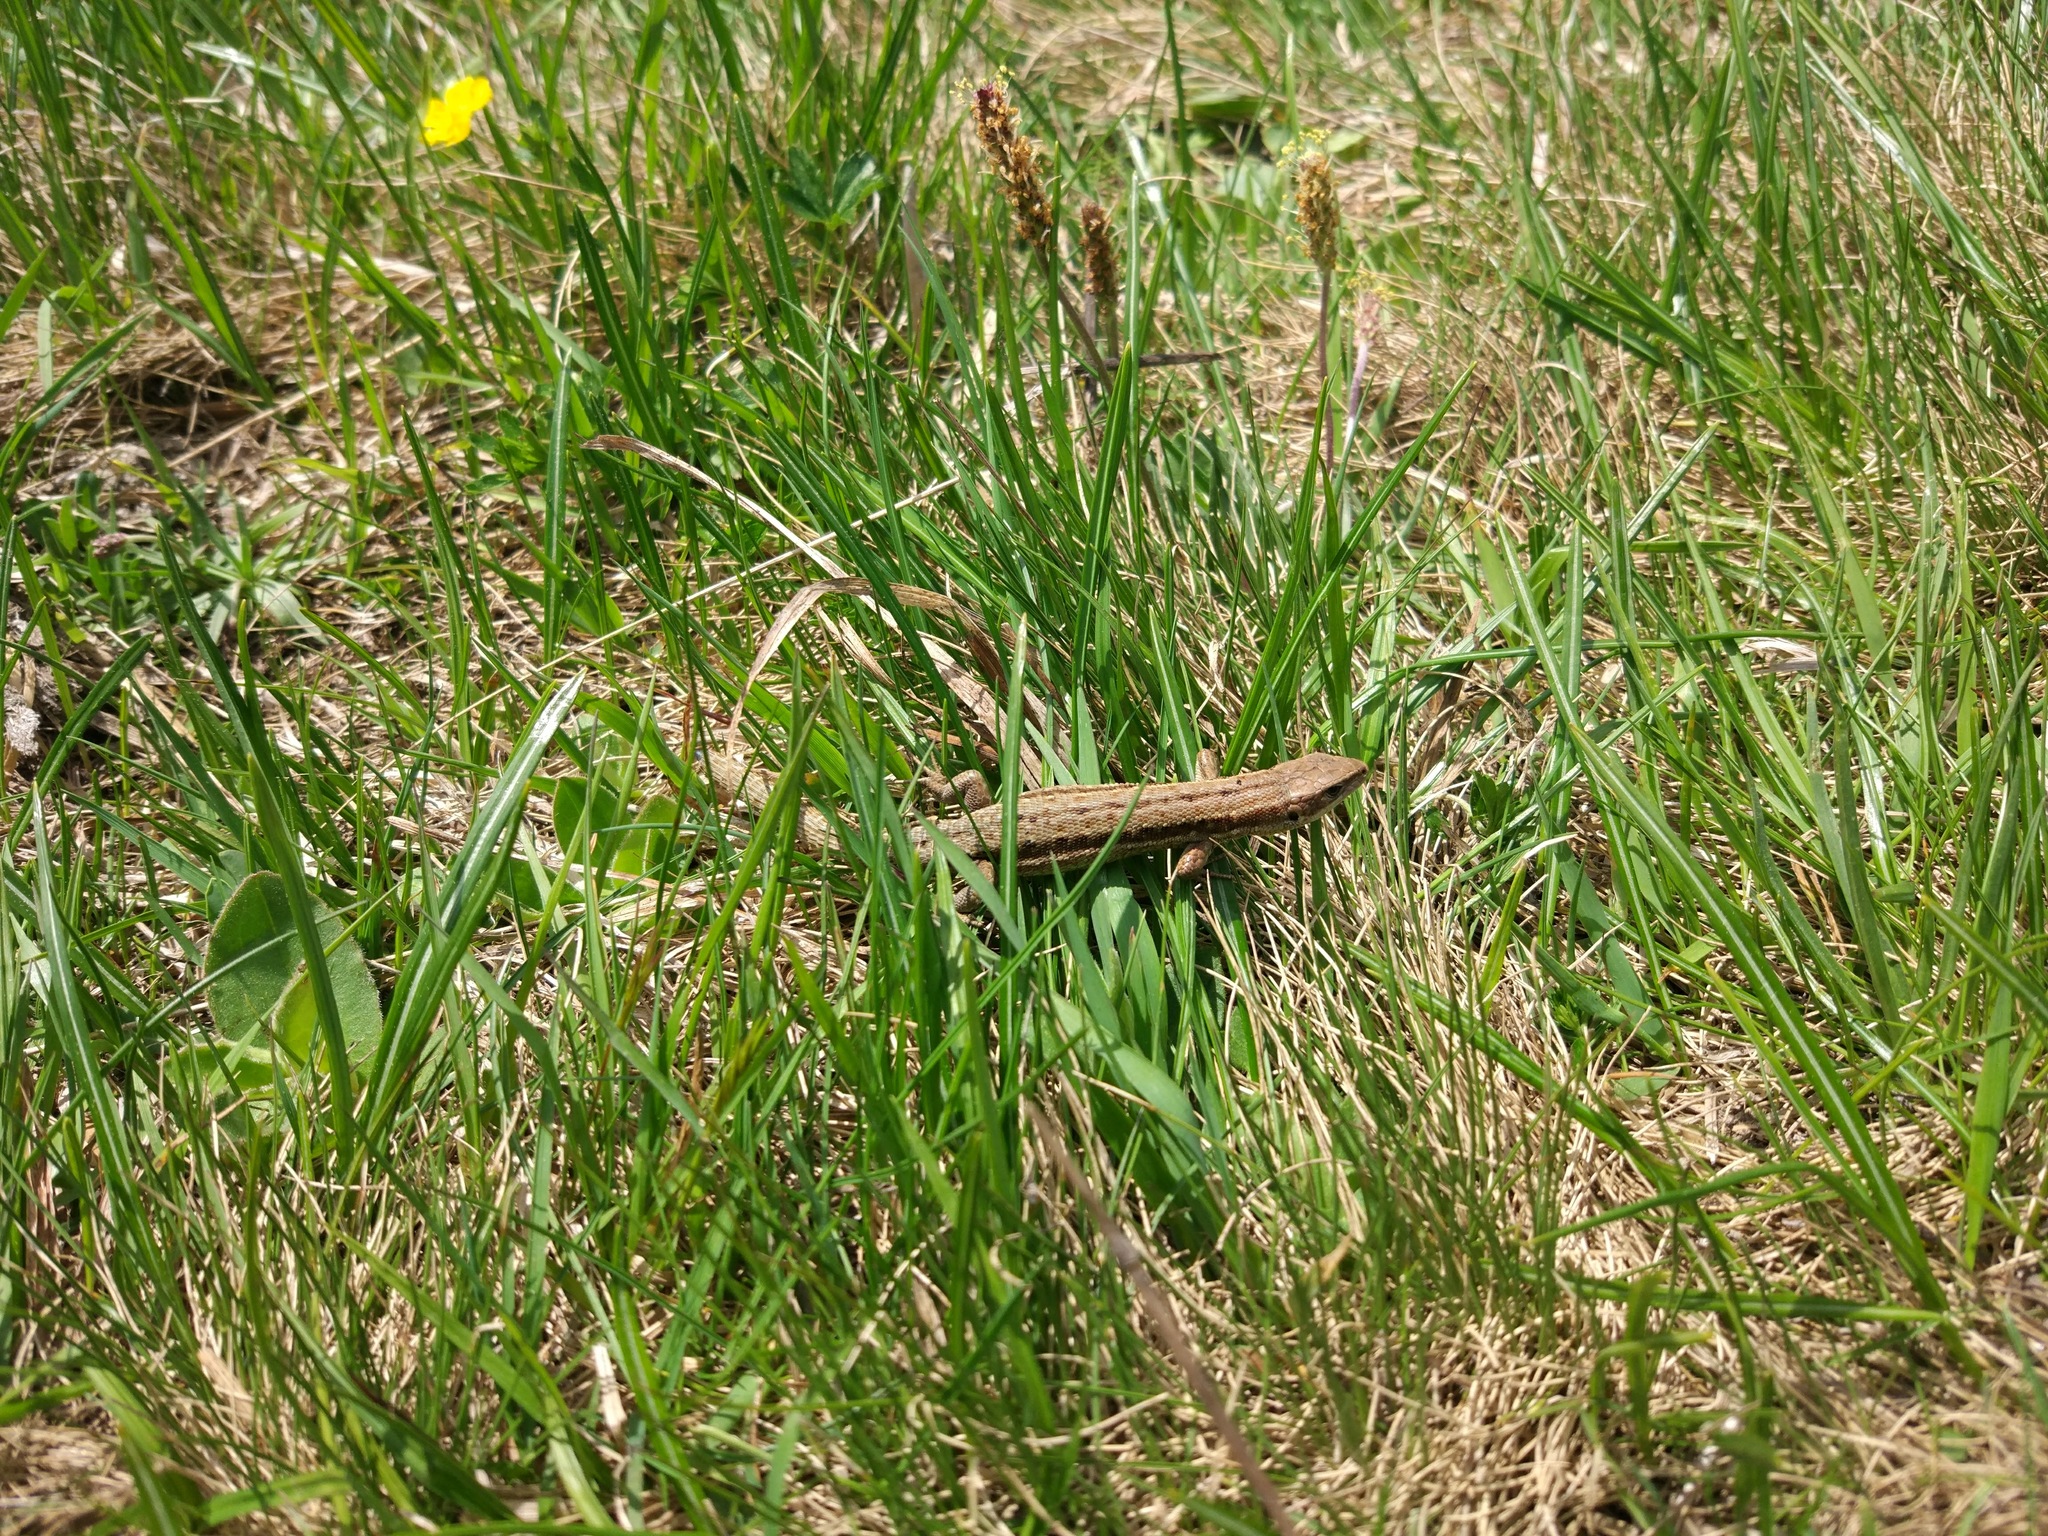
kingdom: Animalia
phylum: Chordata
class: Squamata
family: Lacertidae
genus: Zootoca
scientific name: Zootoca vivipara
